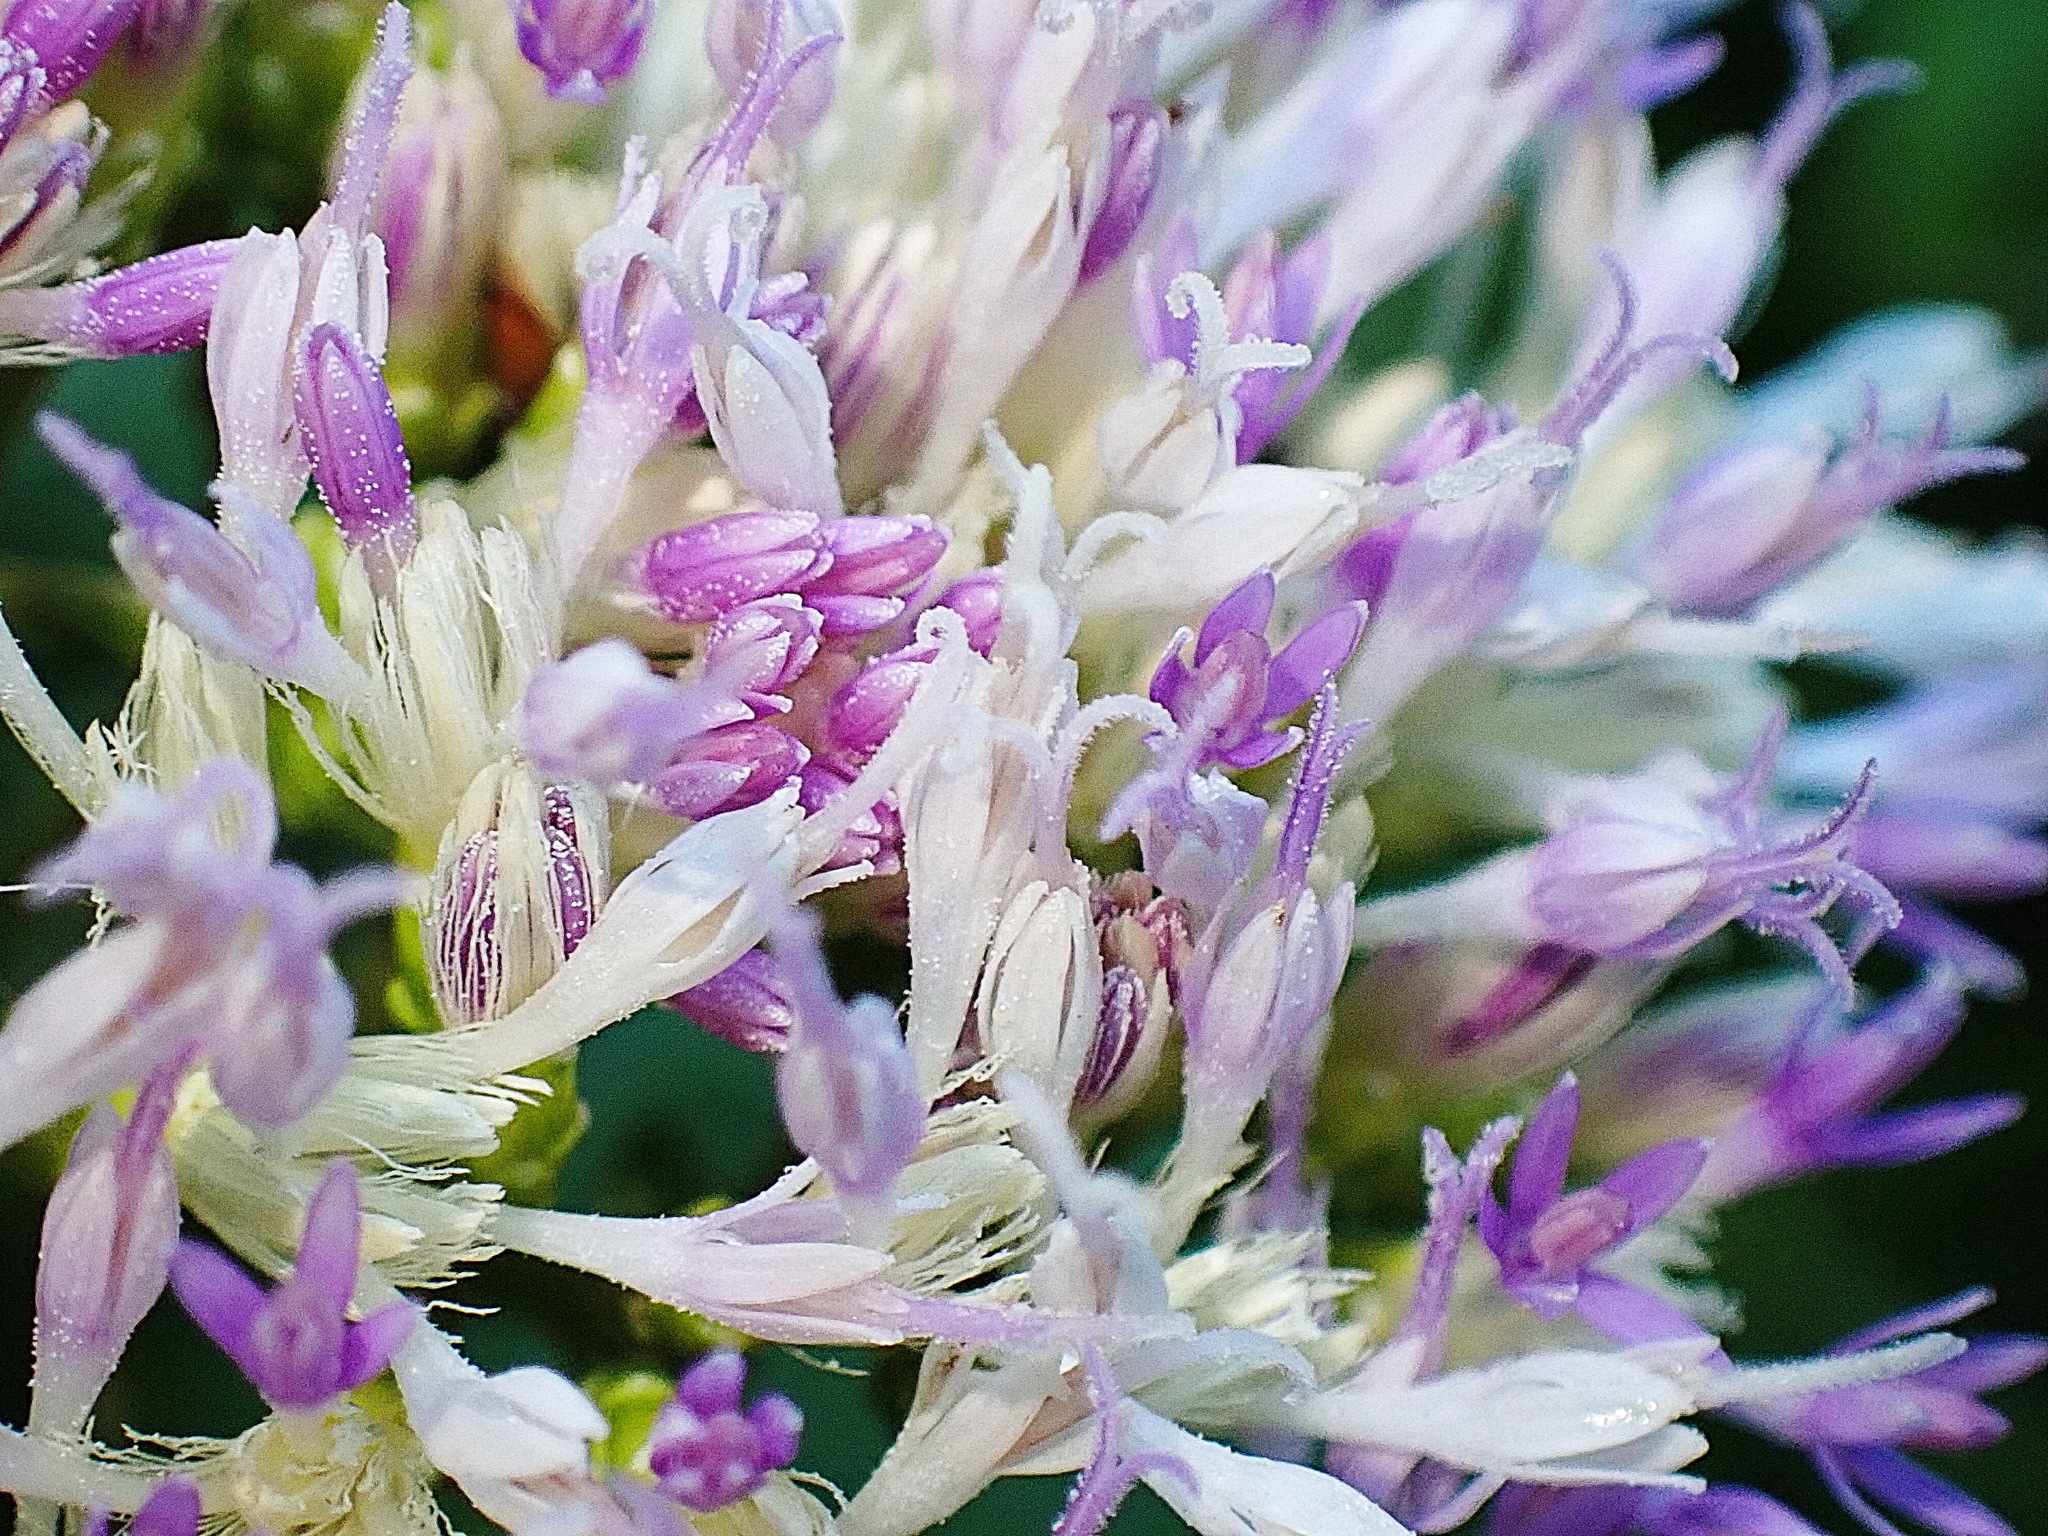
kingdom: Plantae
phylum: Tracheophyta
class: Magnoliopsida
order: Asterales
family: Asteraceae
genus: Gymnanthemum
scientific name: Gymnanthemum capense
